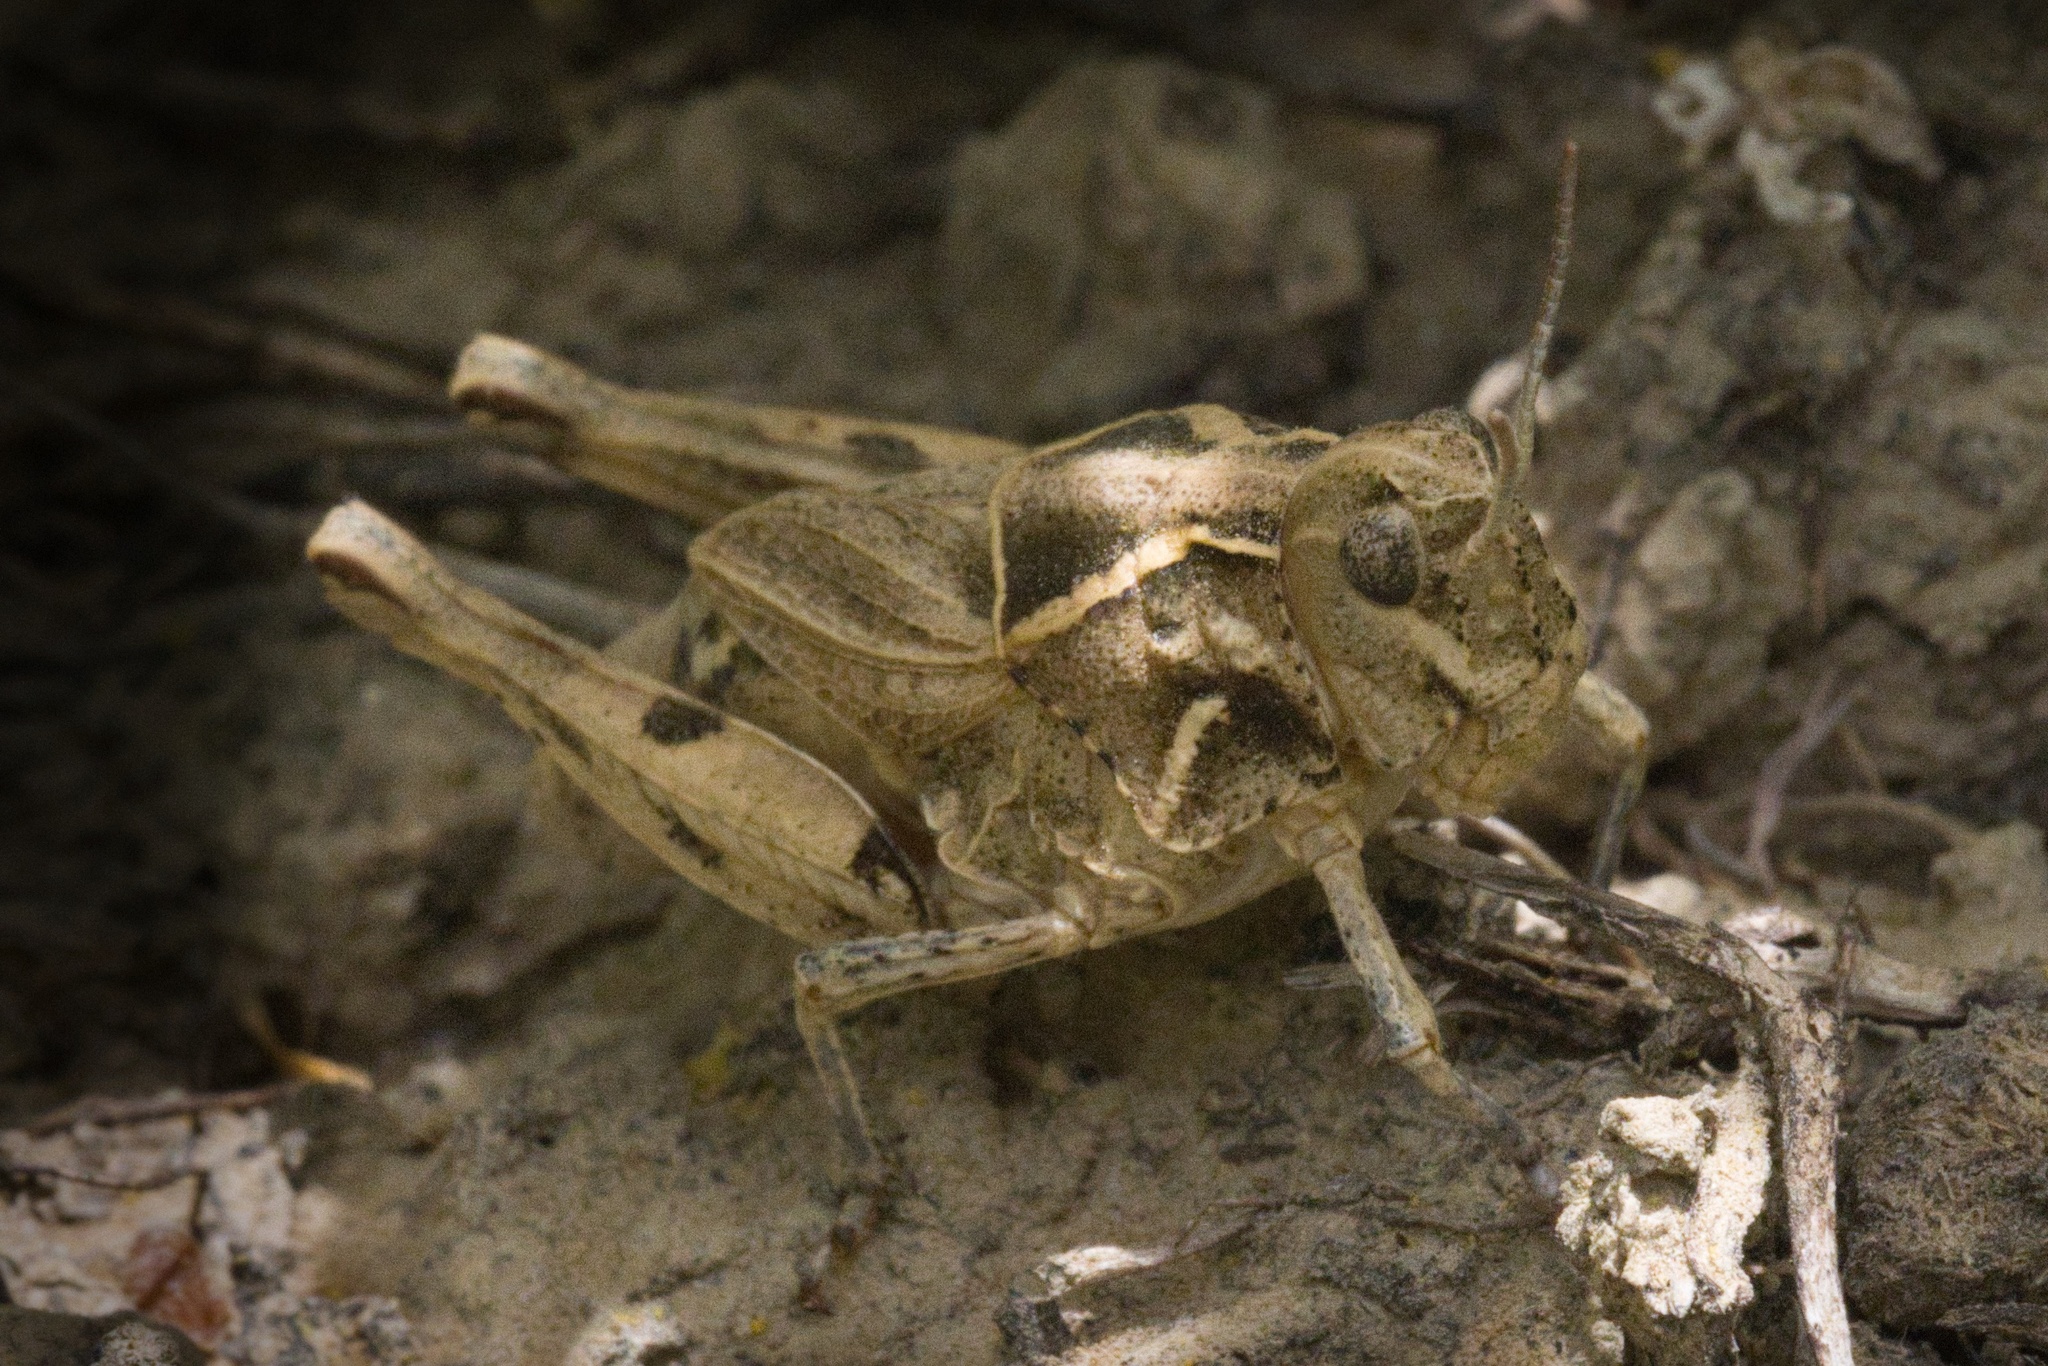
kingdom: Animalia
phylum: Arthropoda
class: Insecta
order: Orthoptera
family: Acrididae
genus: Esselenia
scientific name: Esselenia vanduzeei
